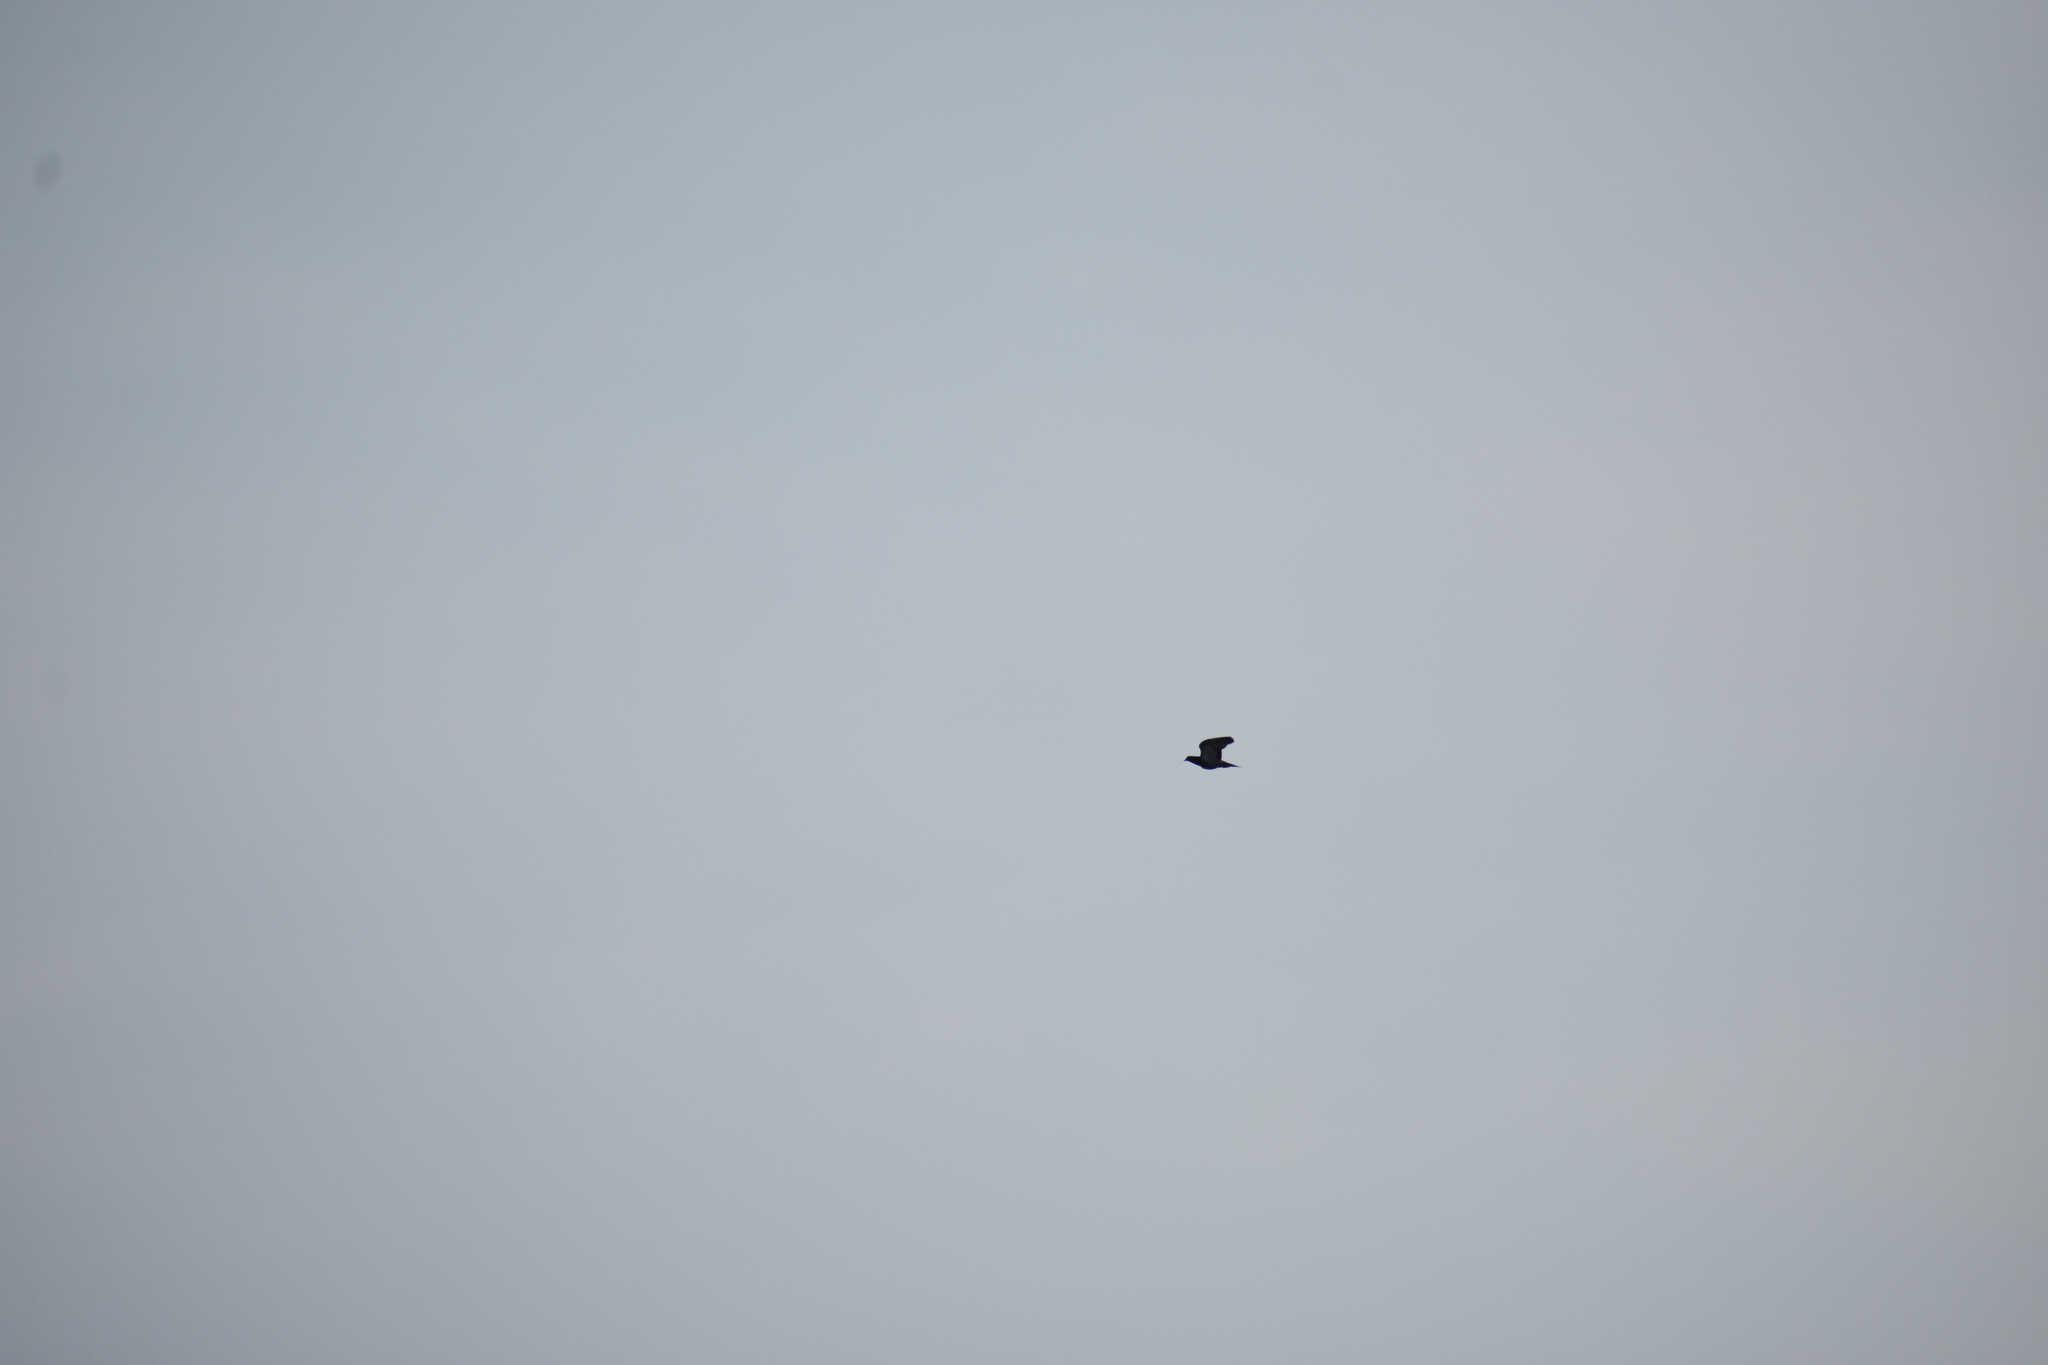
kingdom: Animalia
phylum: Chordata
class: Aves
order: Columbiformes
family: Columbidae
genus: Columba
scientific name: Columba livia
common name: Rock pigeon
